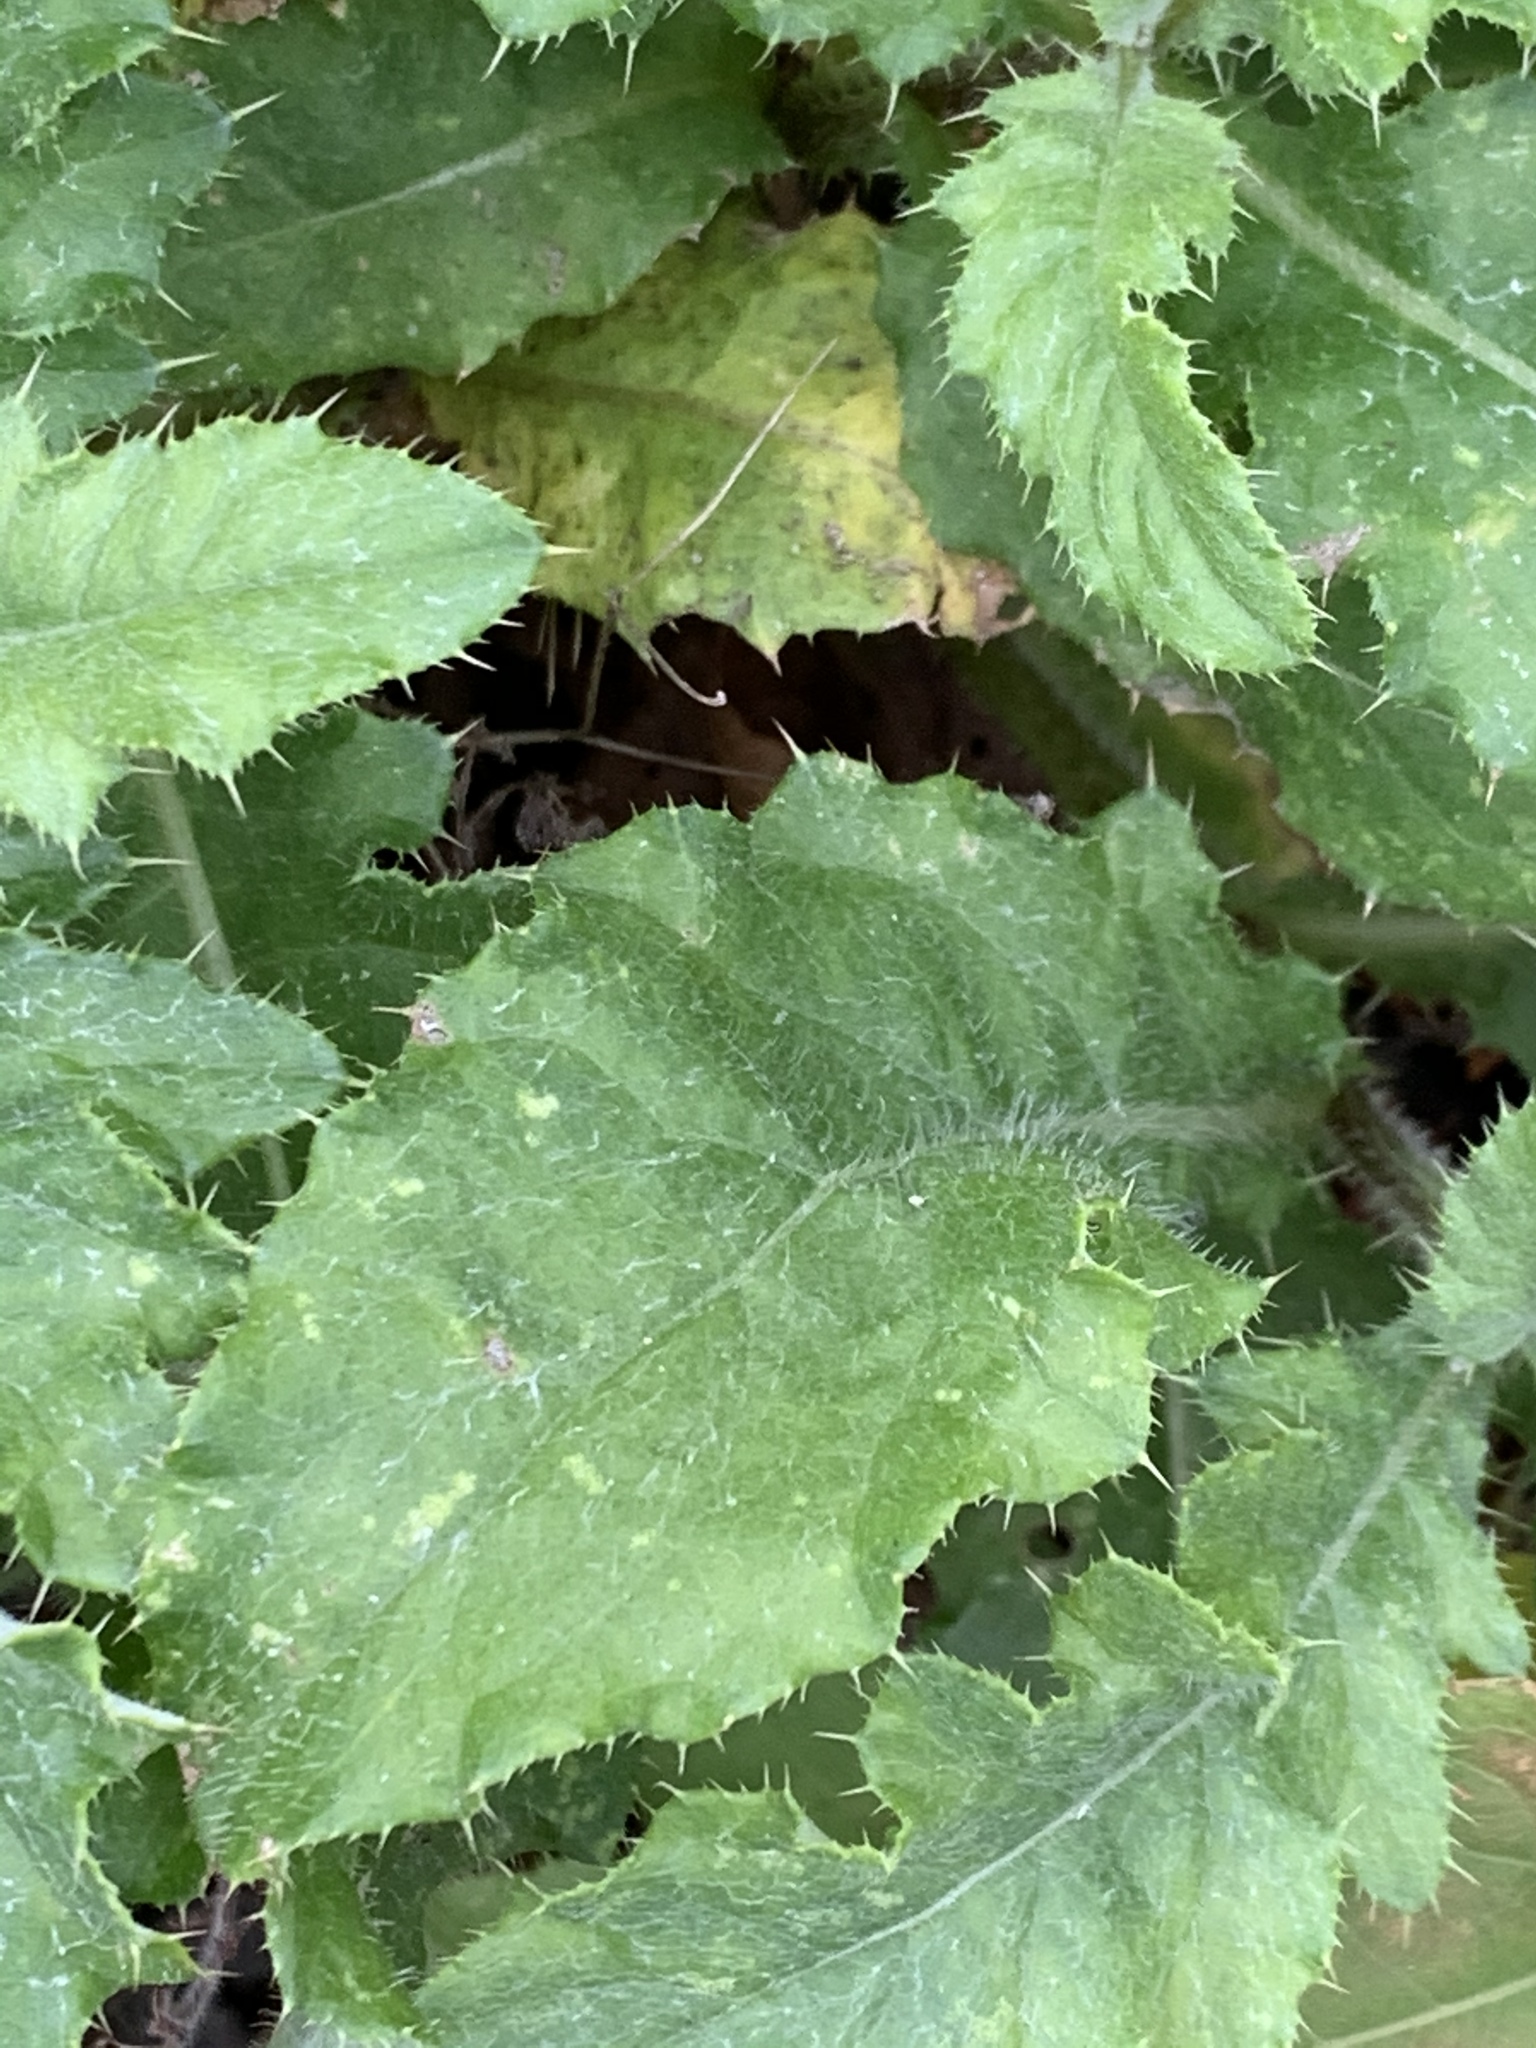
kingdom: Plantae
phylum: Tracheophyta
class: Magnoliopsida
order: Asterales
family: Asteraceae
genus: Cirsium
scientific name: Cirsium arvense
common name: Creeping thistle
